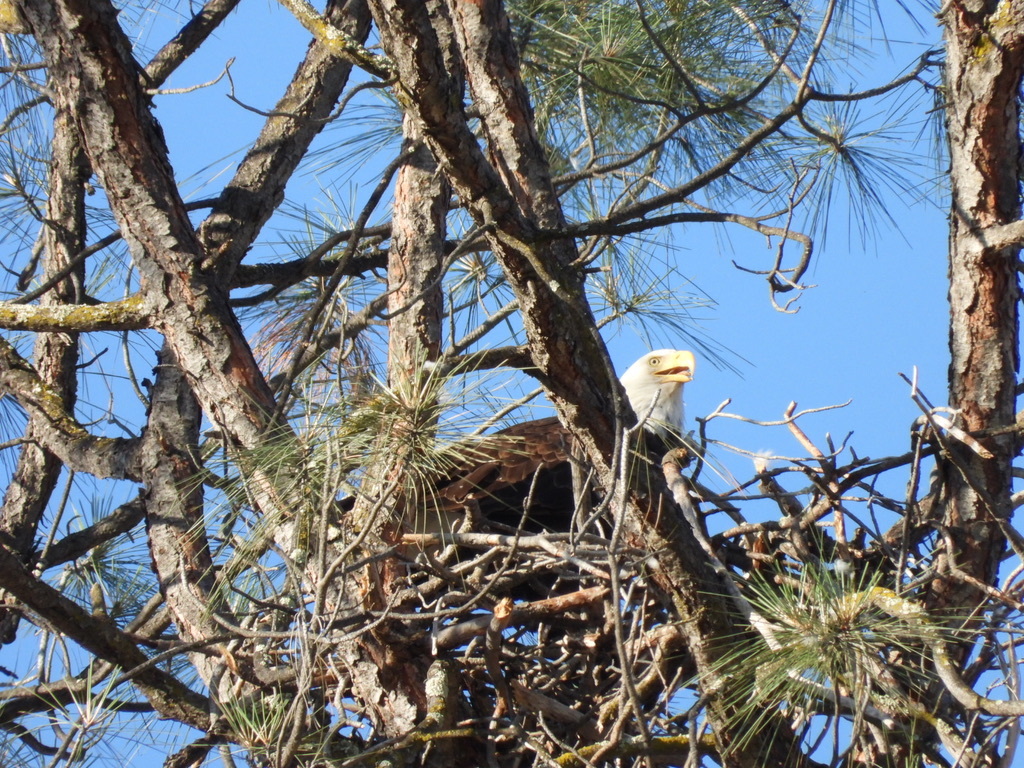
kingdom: Animalia
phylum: Chordata
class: Aves
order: Accipitriformes
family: Accipitridae
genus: Haliaeetus
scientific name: Haliaeetus leucocephalus
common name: Bald eagle
